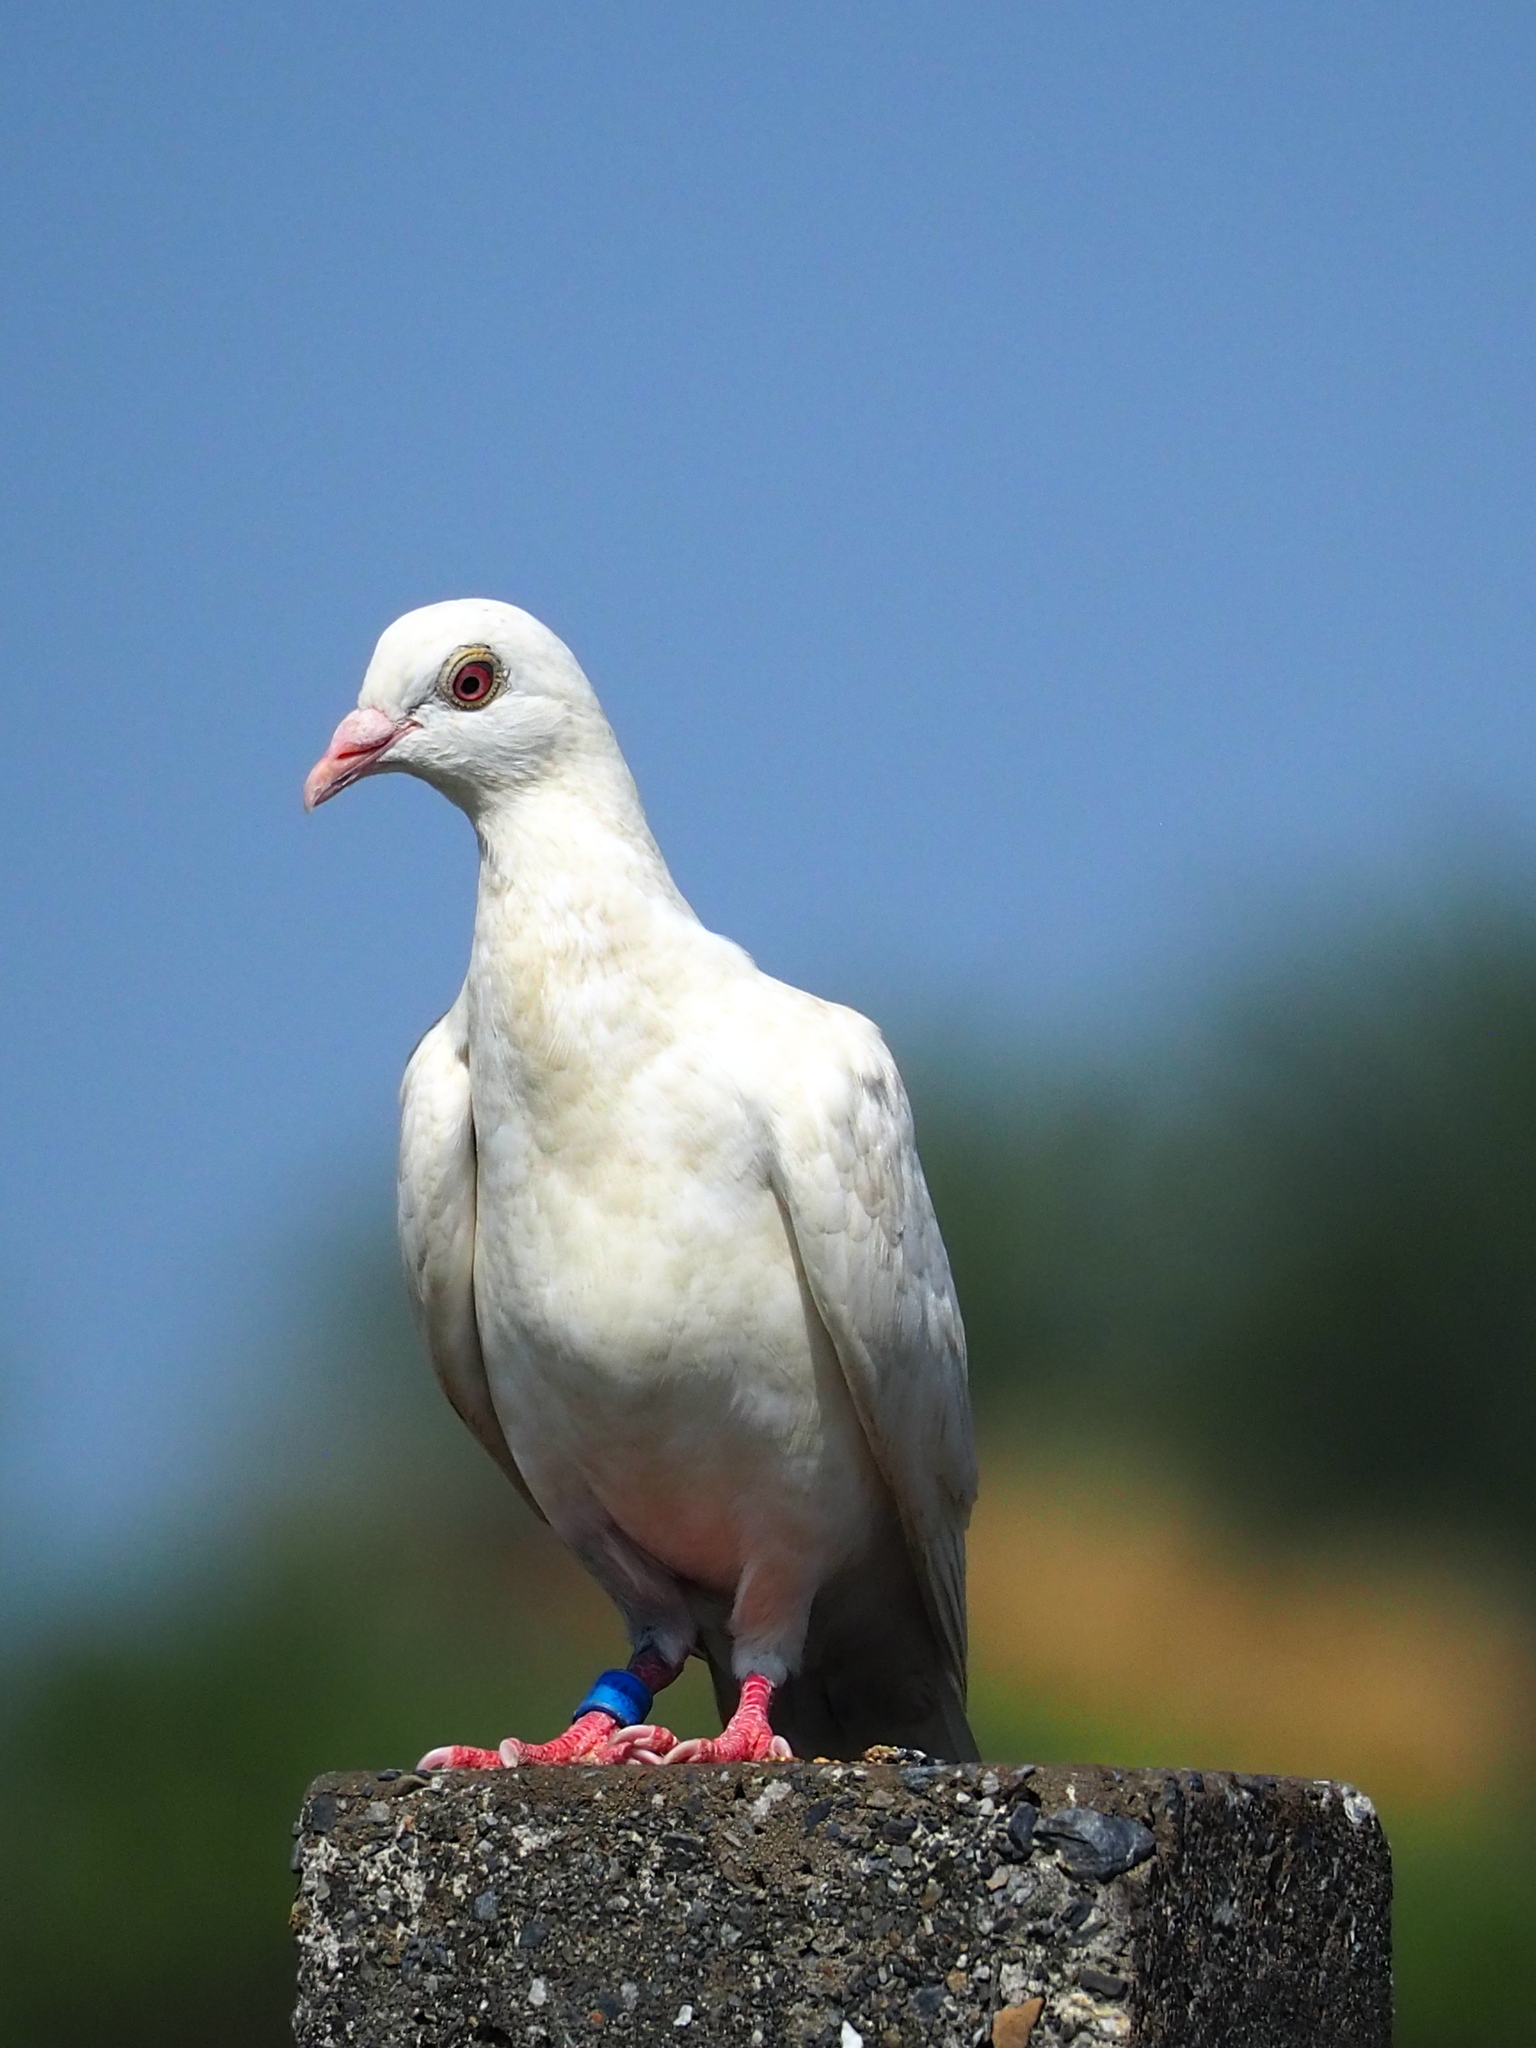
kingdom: Animalia
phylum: Chordata
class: Aves
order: Columbiformes
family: Columbidae
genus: Columba
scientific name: Columba livia
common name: Rock pigeon
